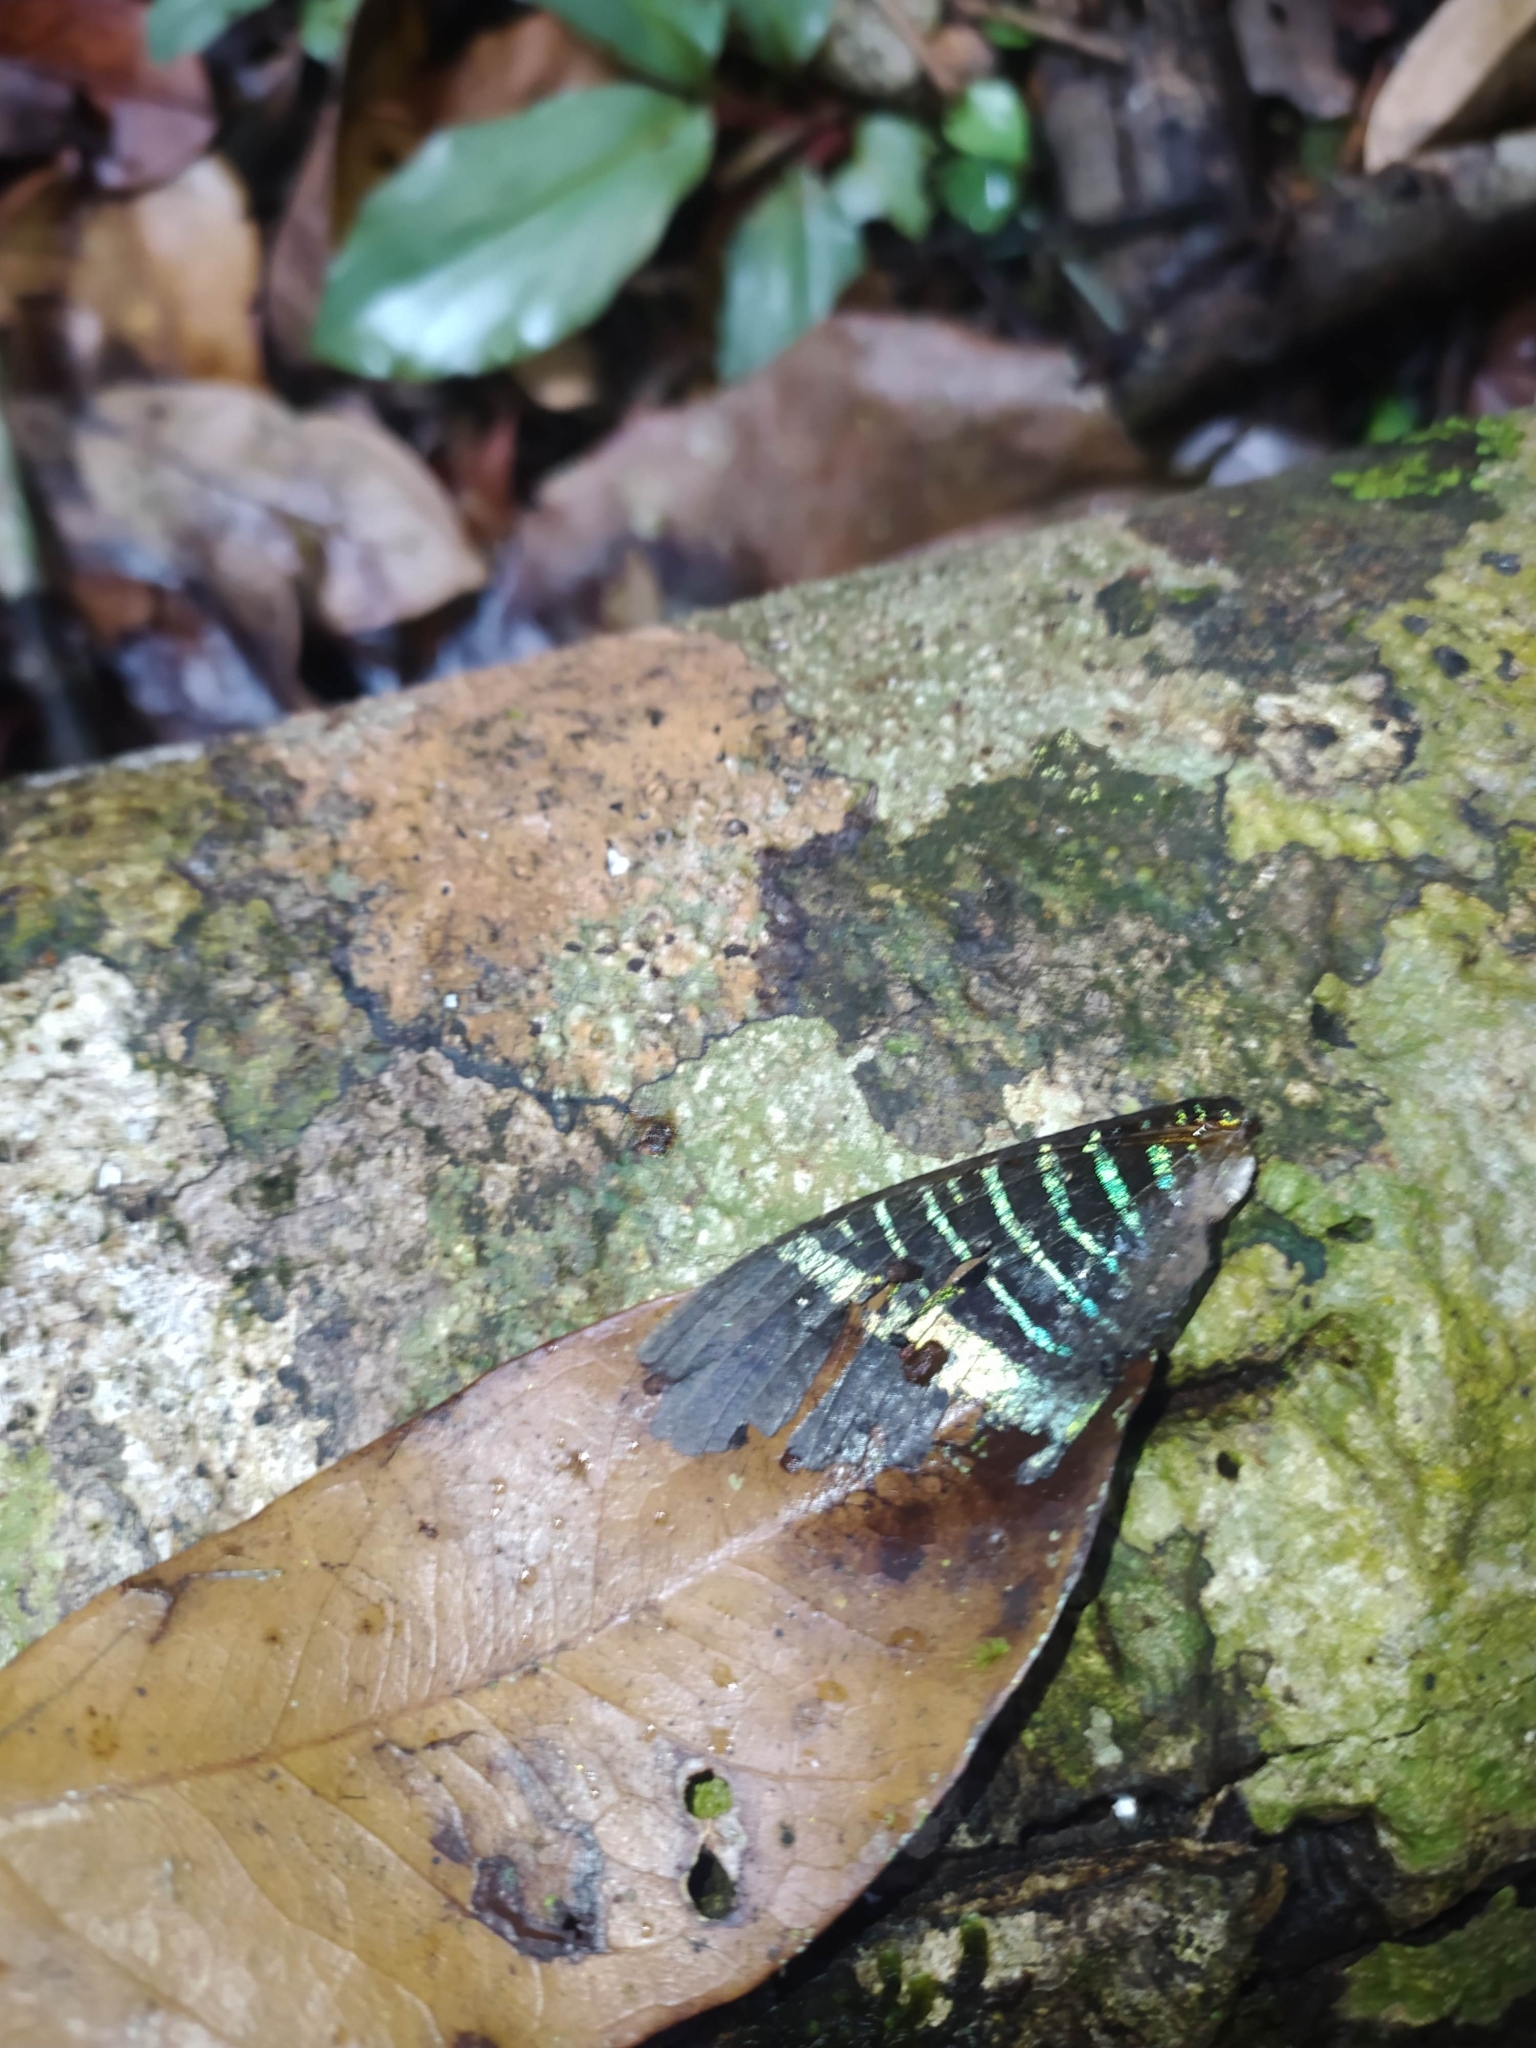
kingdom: Animalia
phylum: Arthropoda
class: Insecta
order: Lepidoptera
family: Uraniidae
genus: Urania
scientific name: Urania leilus
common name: Peacock moth
